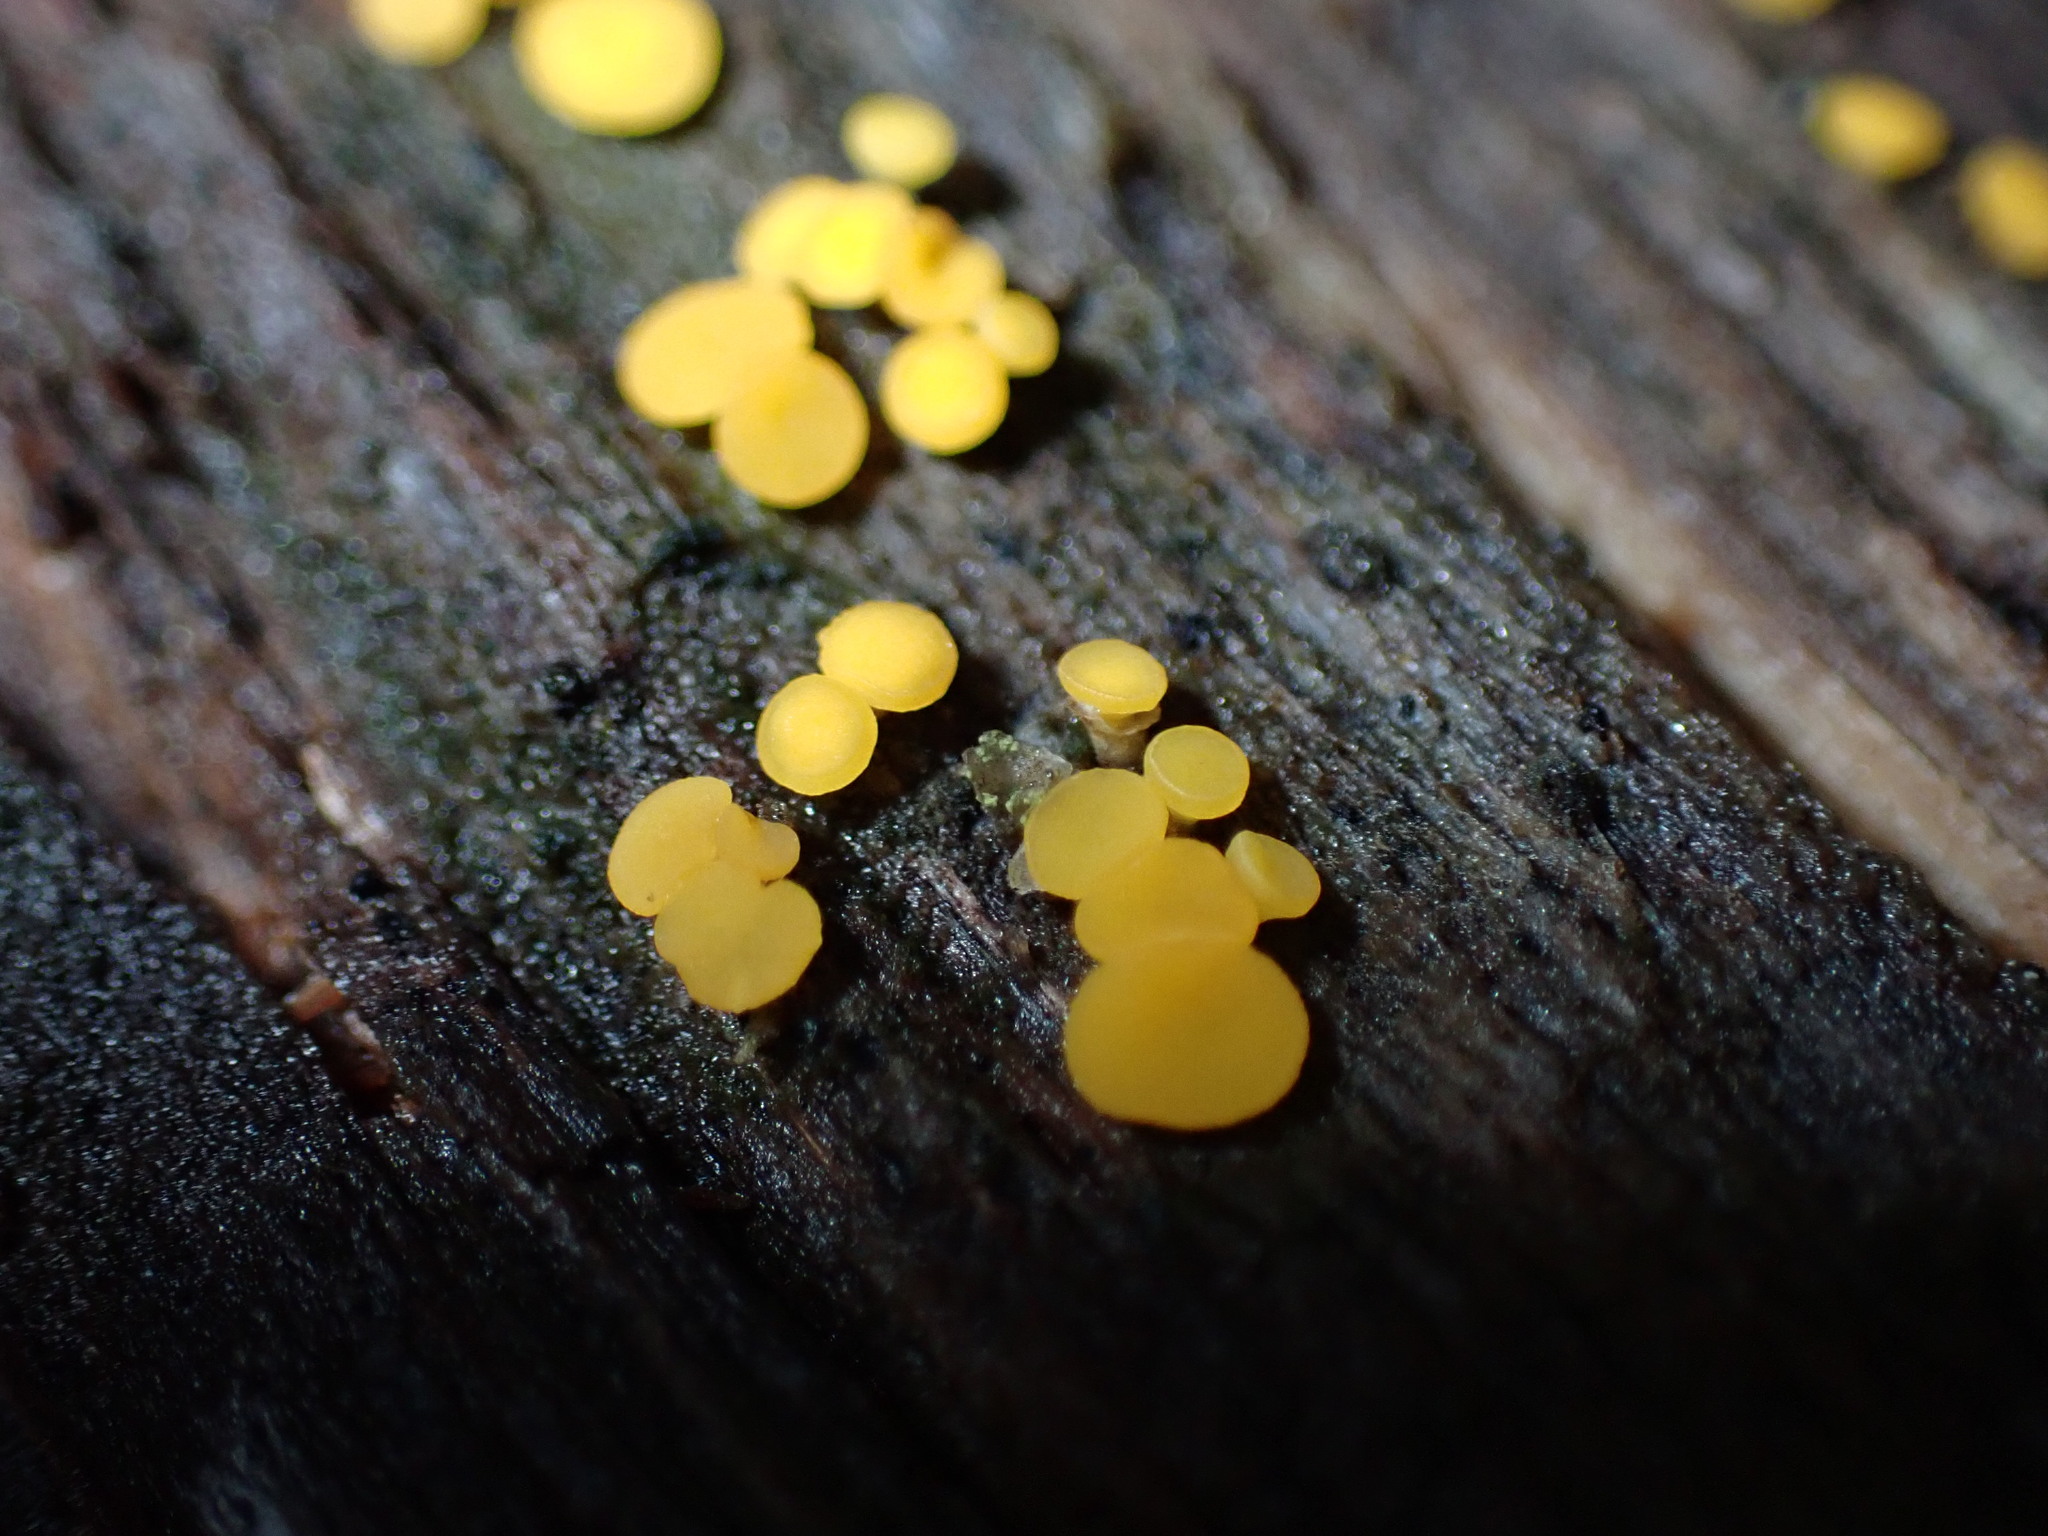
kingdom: Fungi
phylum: Ascomycota
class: Leotiomycetes
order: Helotiales
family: Pezizellaceae
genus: Calycina
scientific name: Calycina citrina
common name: Yellow fairy cups
